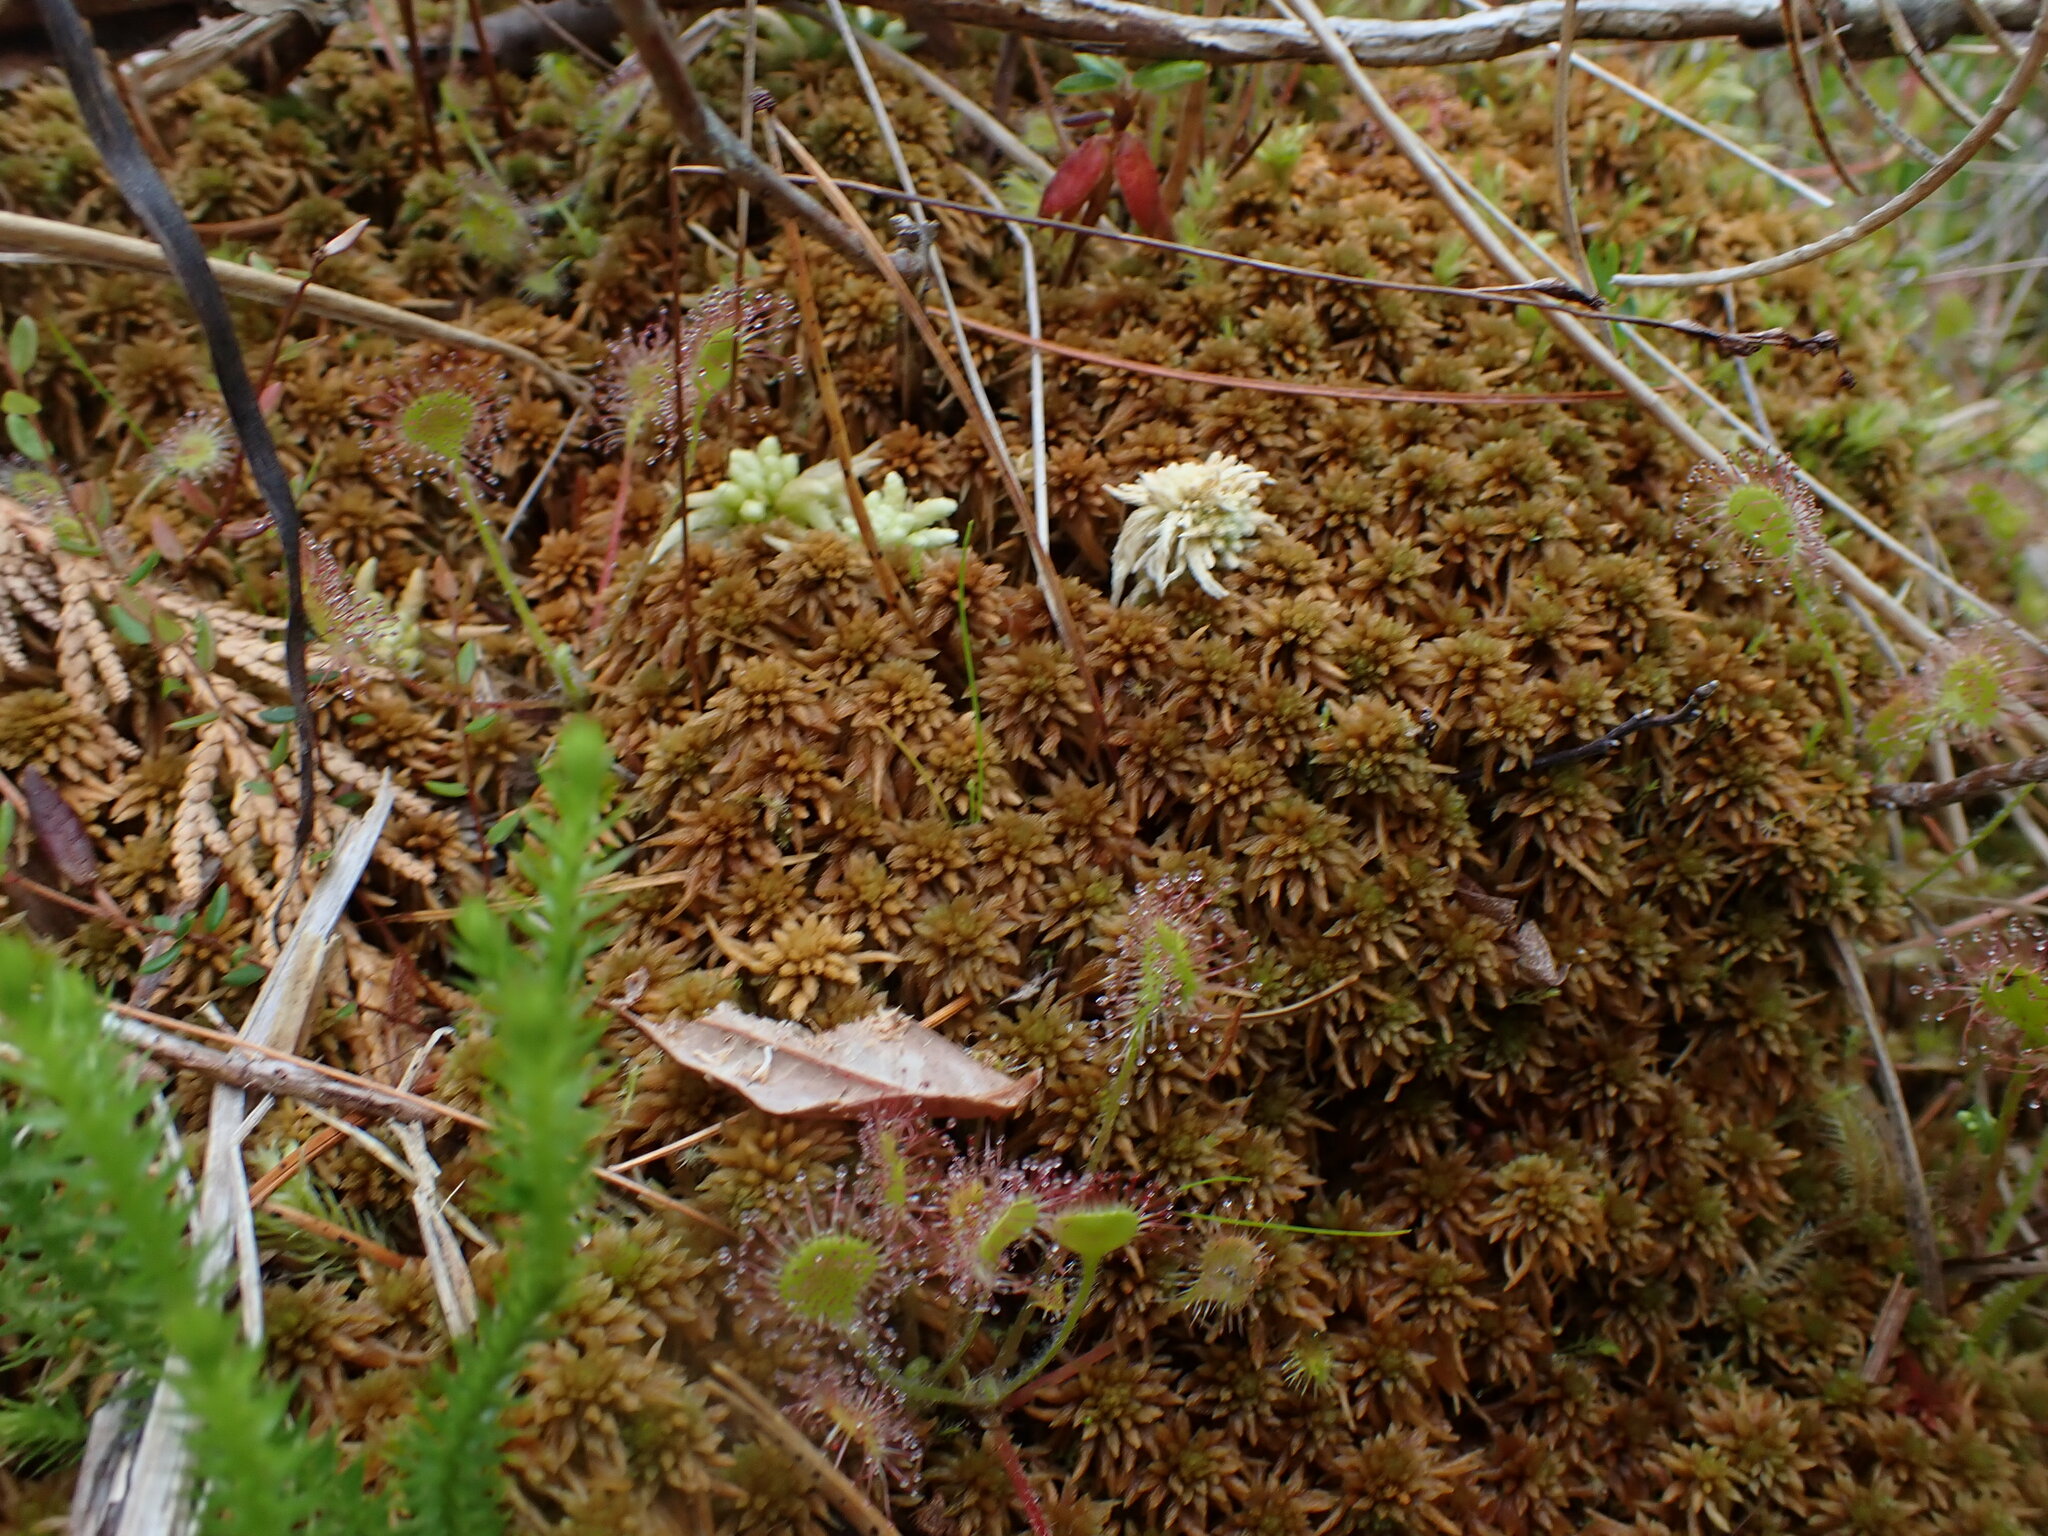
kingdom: Plantae
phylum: Bryophyta
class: Sphagnopsida
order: Sphagnales
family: Sphagnaceae
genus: Sphagnum
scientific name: Sphagnum fuscum
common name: Brown peat moss
